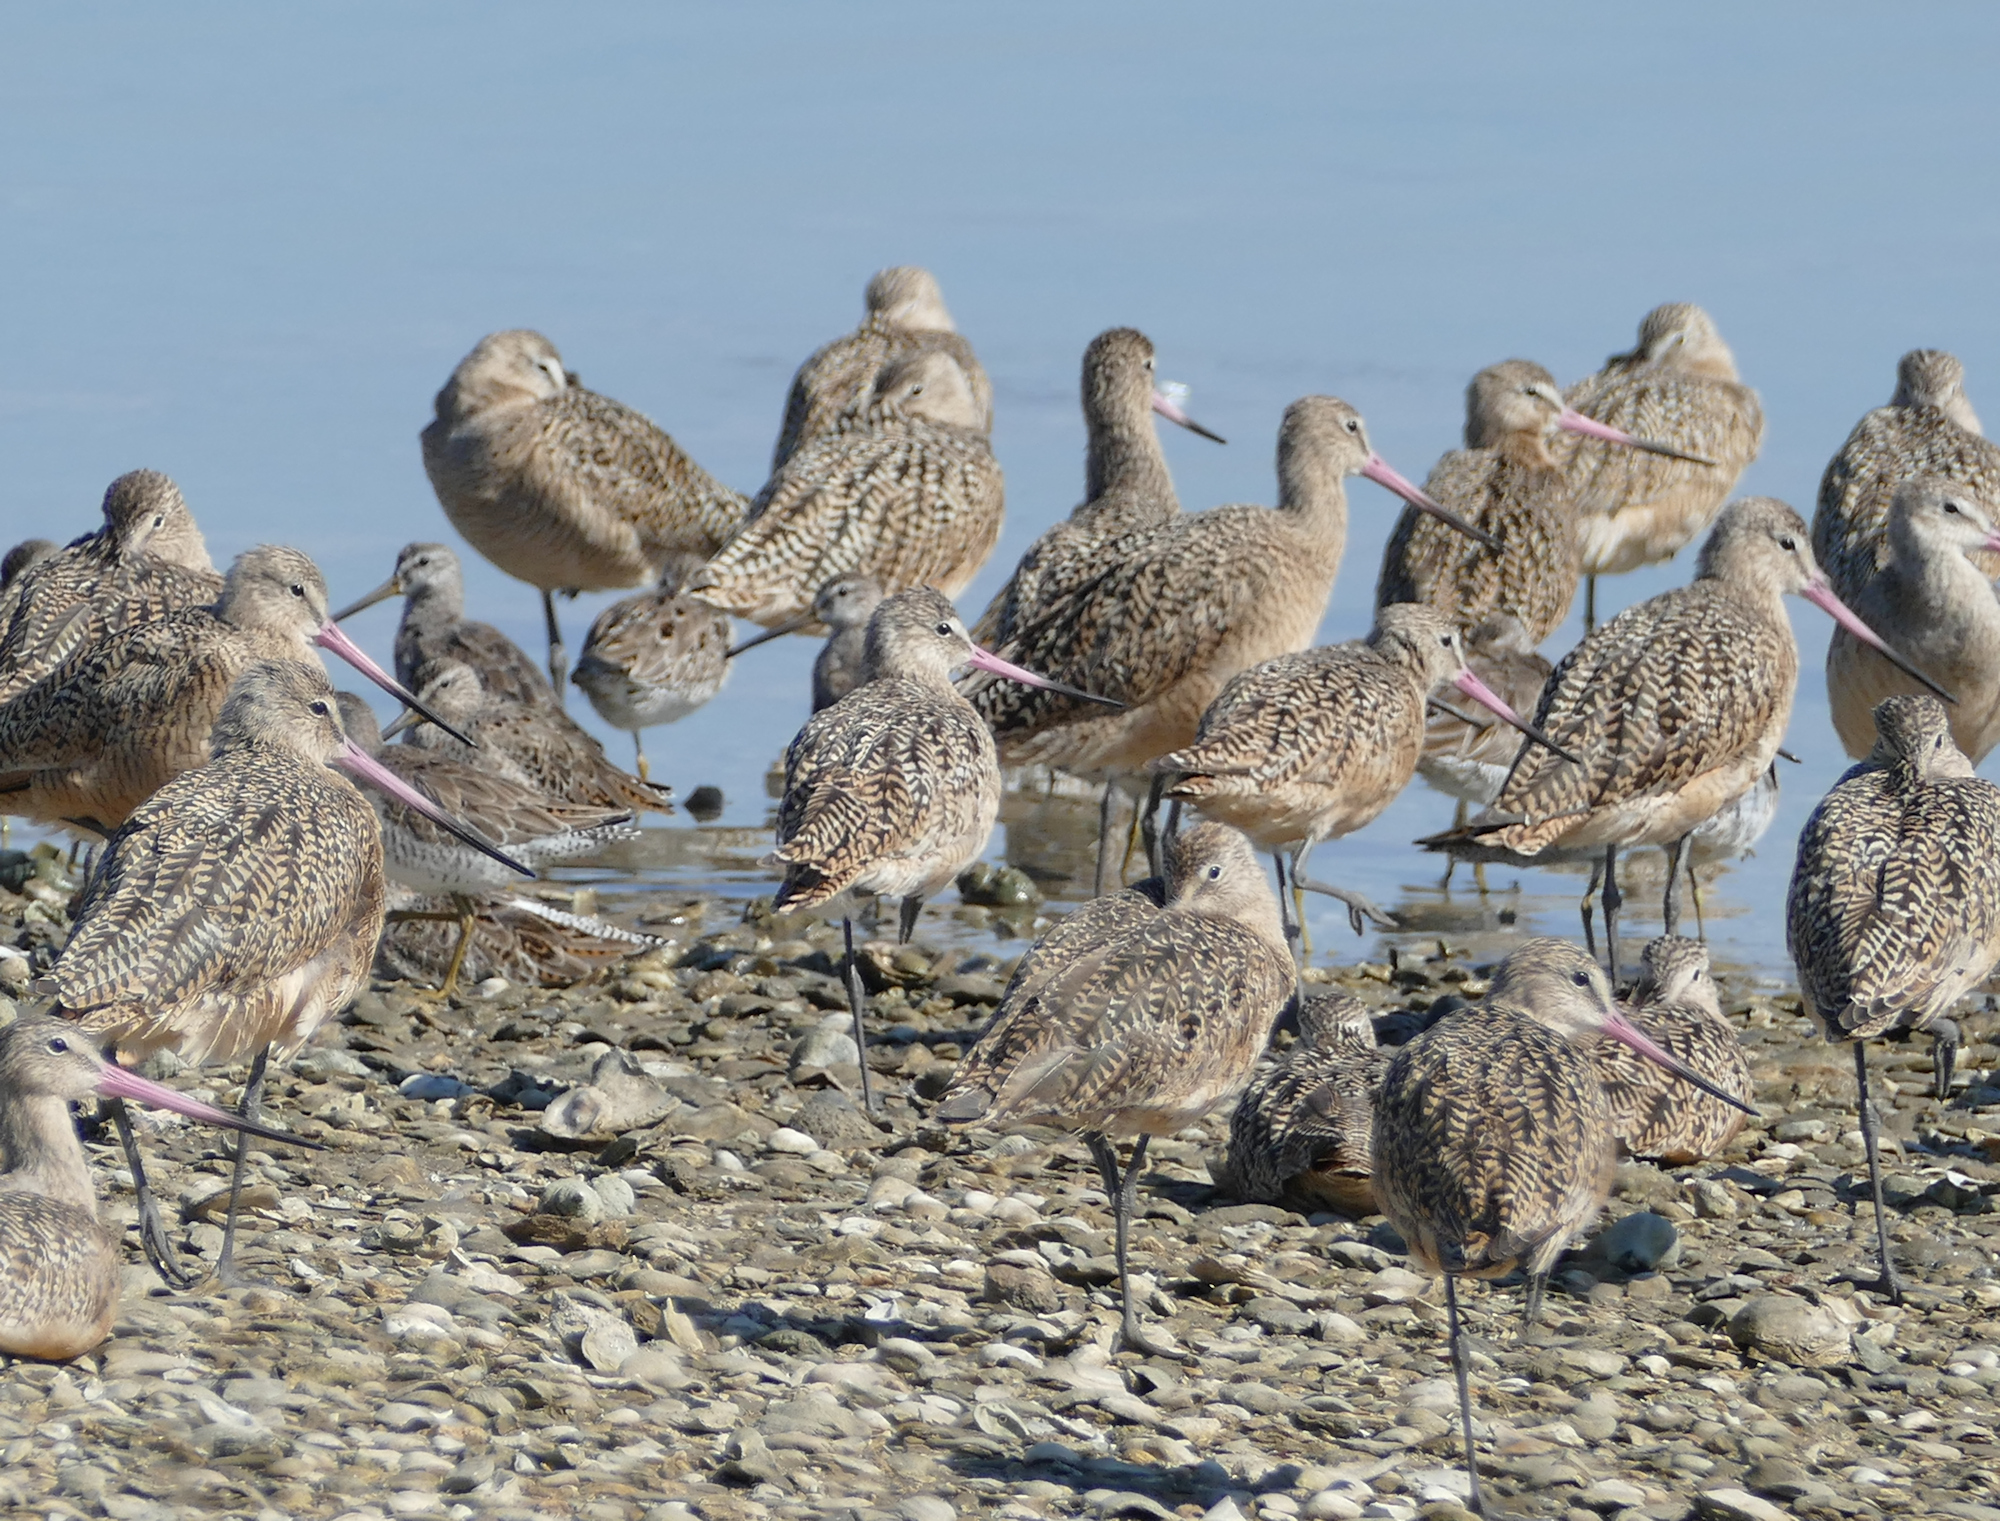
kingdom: Animalia
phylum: Chordata
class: Aves
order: Charadriiformes
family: Scolopacidae
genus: Limosa
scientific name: Limosa fedoa
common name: Marbled godwit
